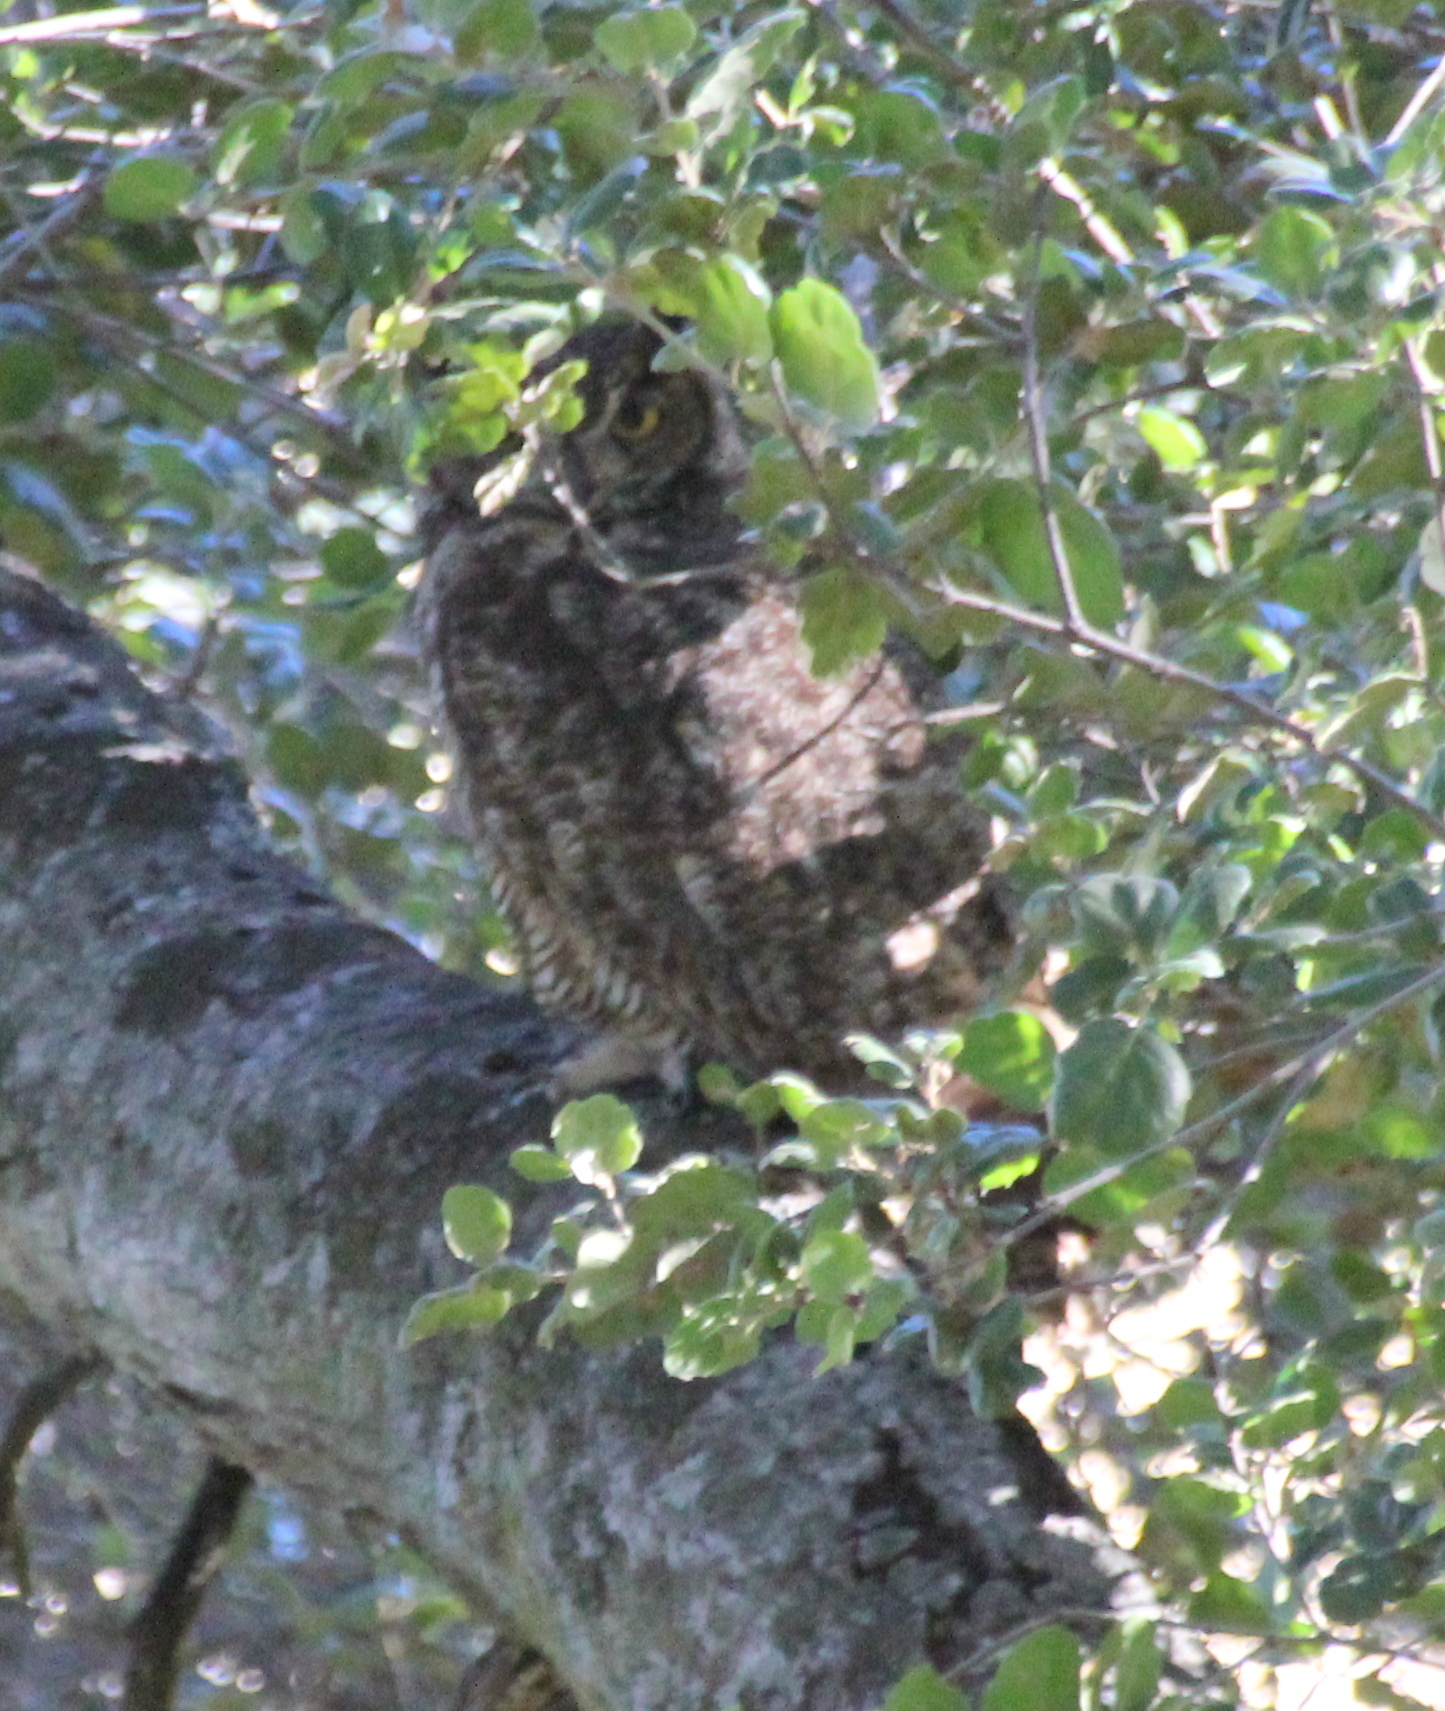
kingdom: Animalia
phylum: Chordata
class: Aves
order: Strigiformes
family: Strigidae
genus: Bubo
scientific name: Bubo virginianus
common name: Great horned owl
